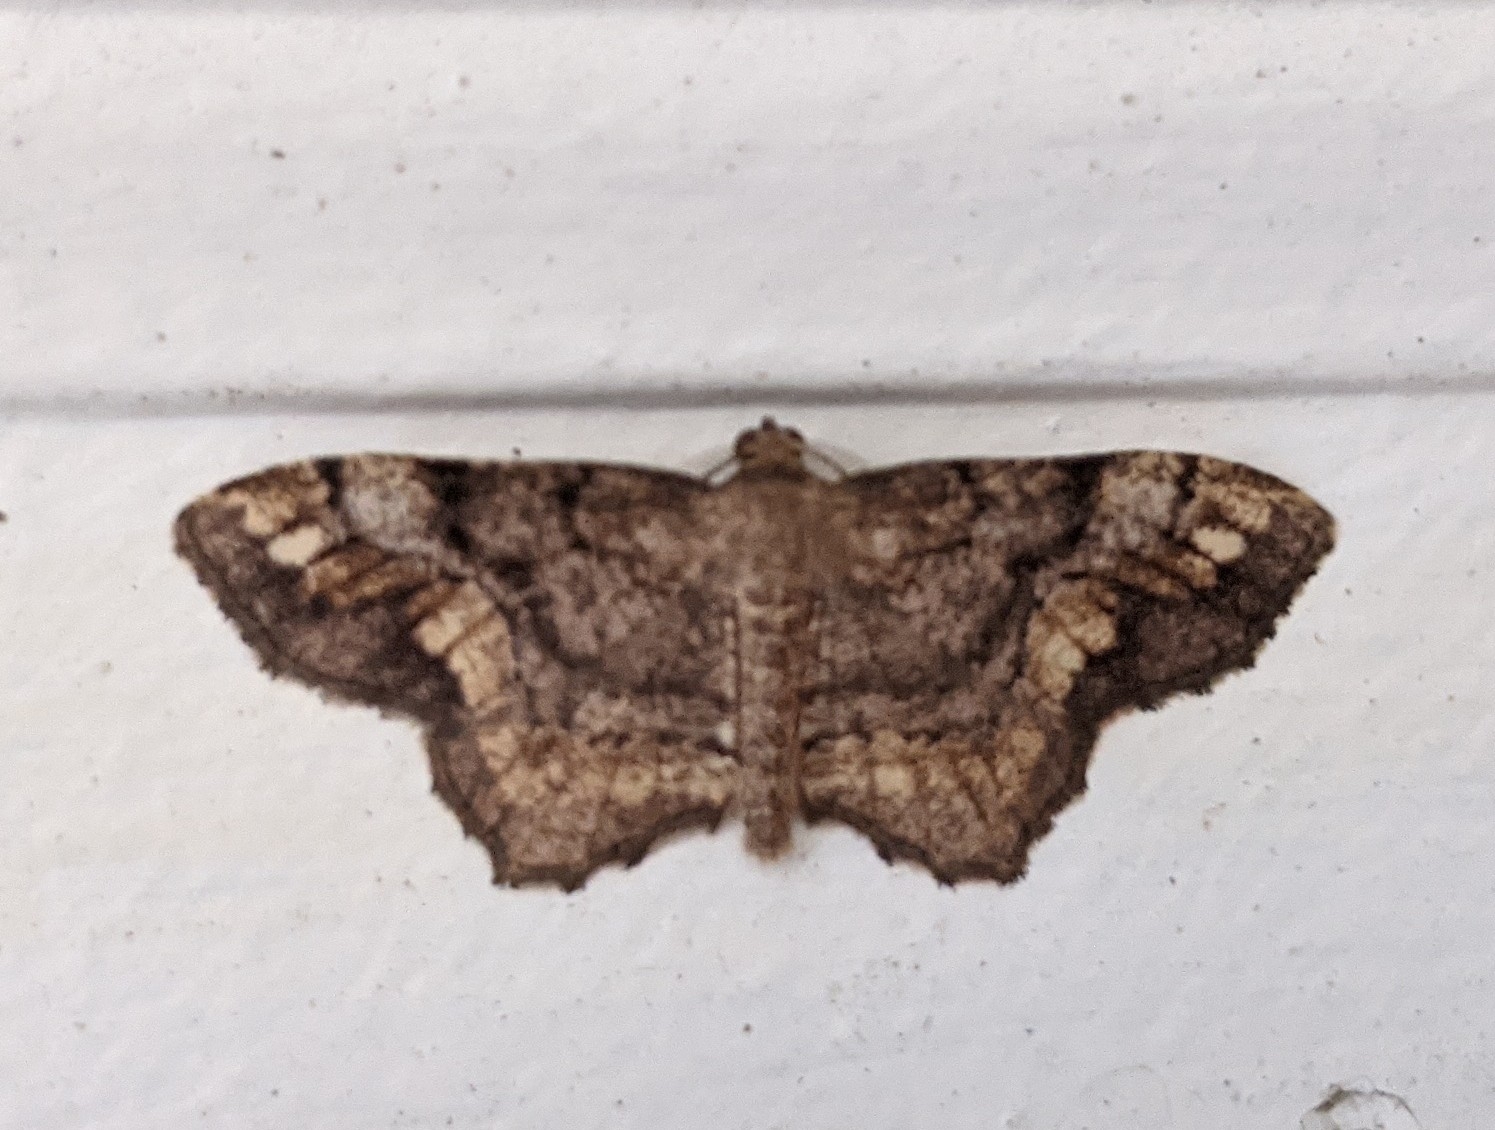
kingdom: Animalia
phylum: Arthropoda
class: Insecta
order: Lepidoptera
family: Geometridae
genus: Hypagyrtis
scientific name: Hypagyrtis unipunctata
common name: One-spotted variant
